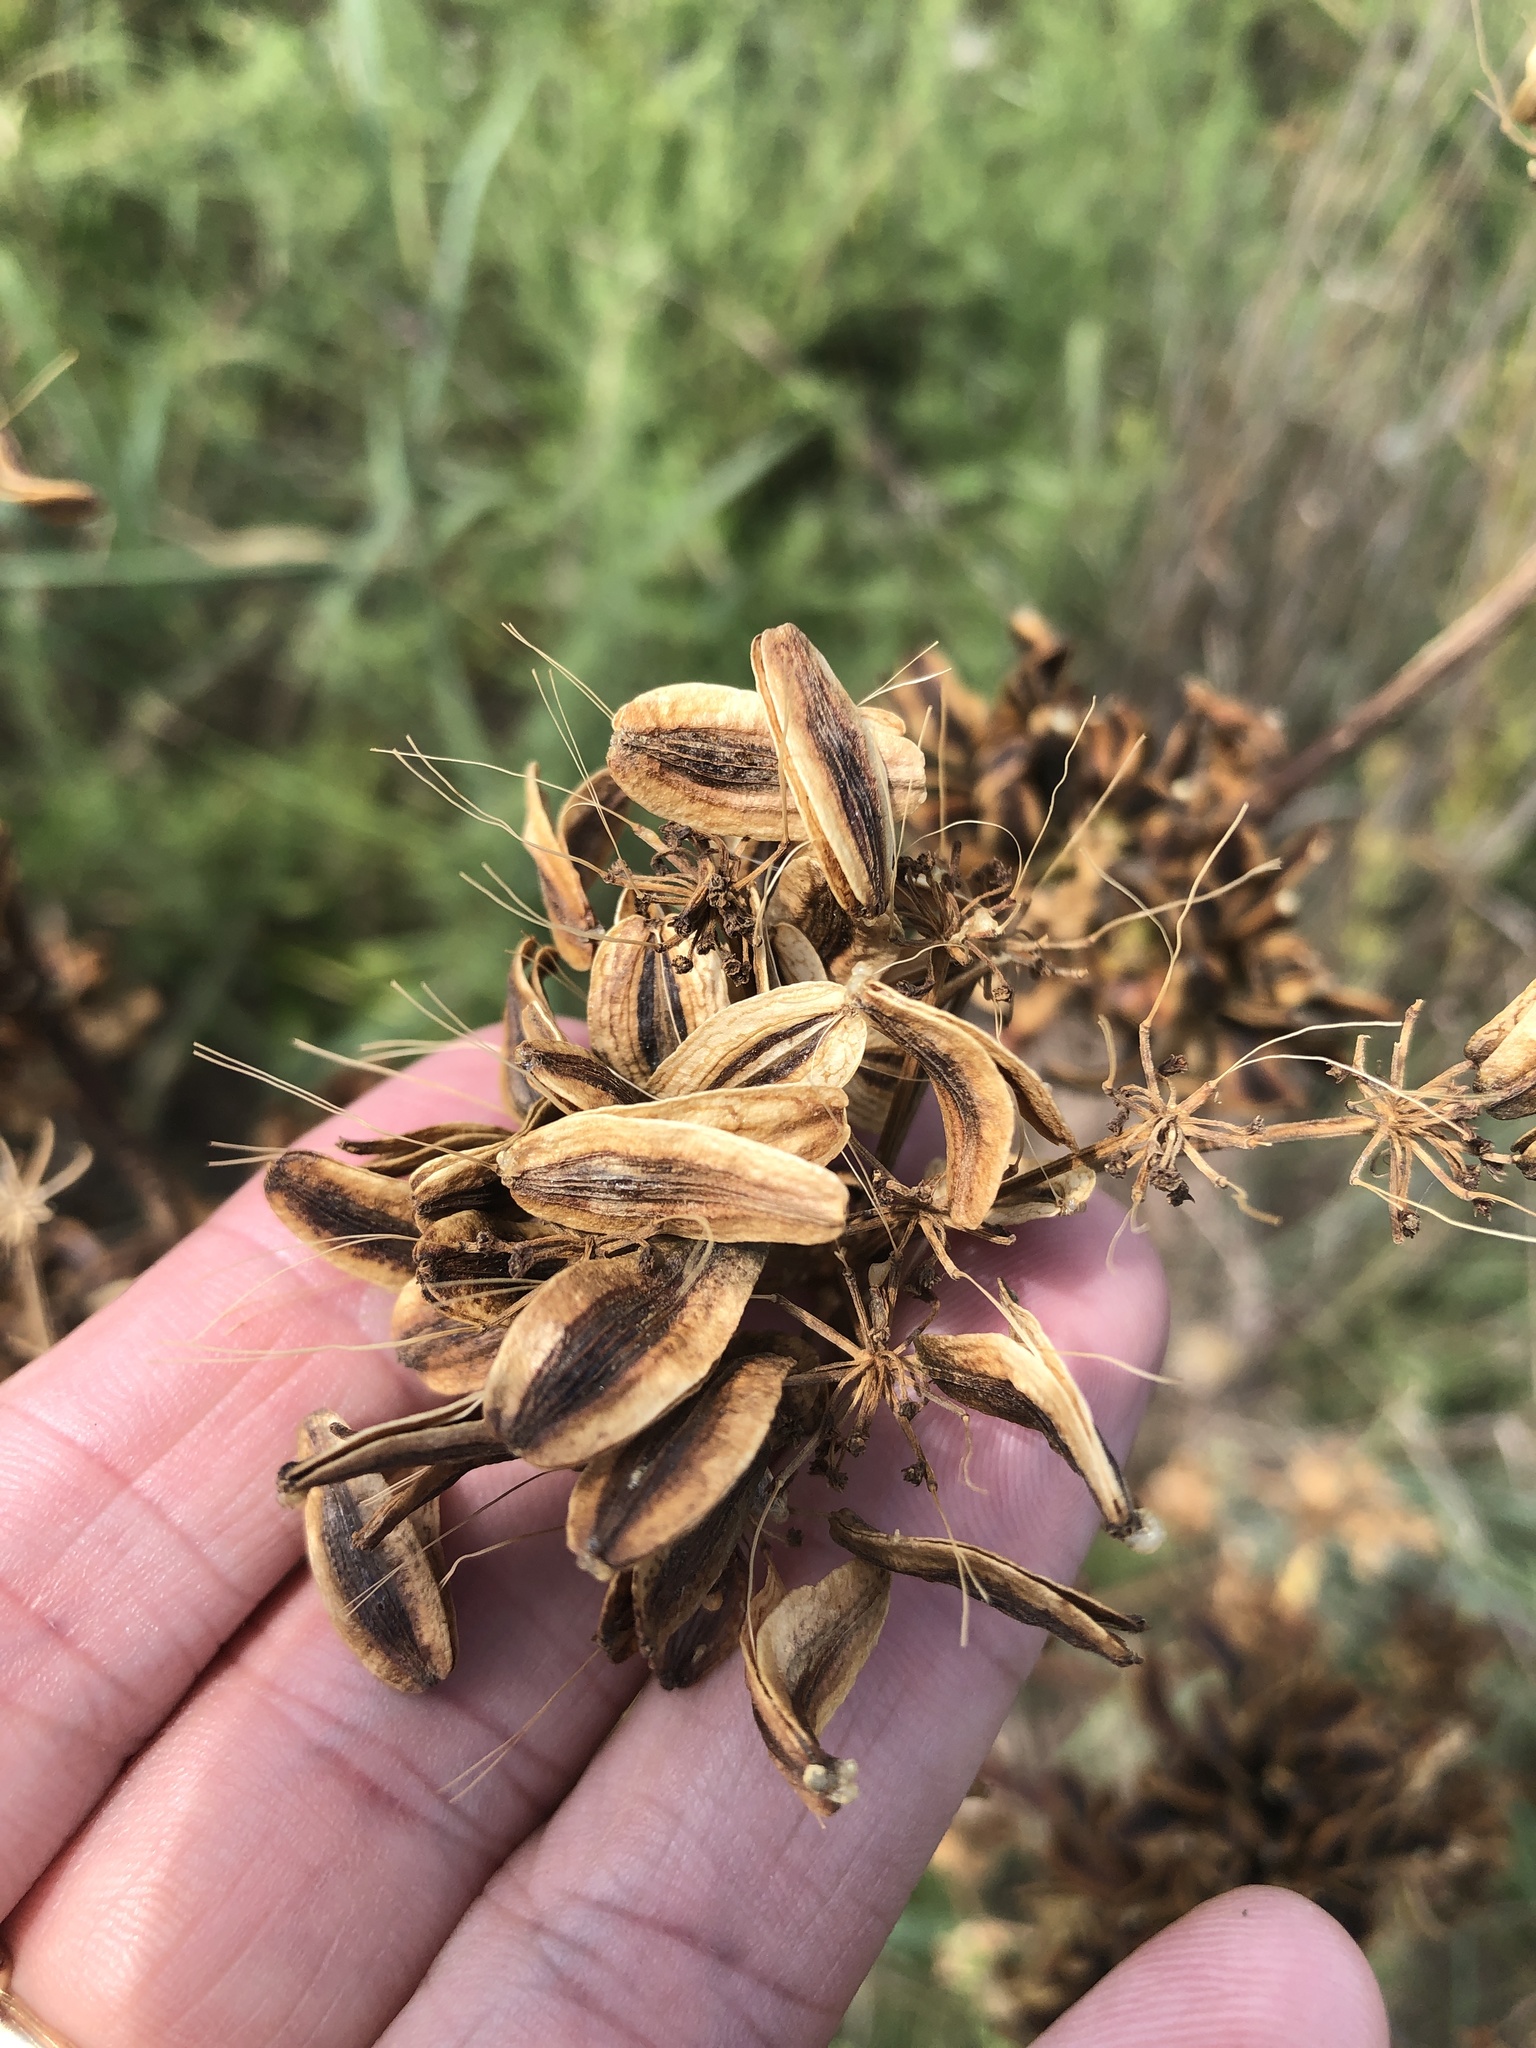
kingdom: Plantae
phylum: Tracheophyta
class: Magnoliopsida
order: Apiales
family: Apiaceae
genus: Polytaenia
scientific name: Polytaenia texana
